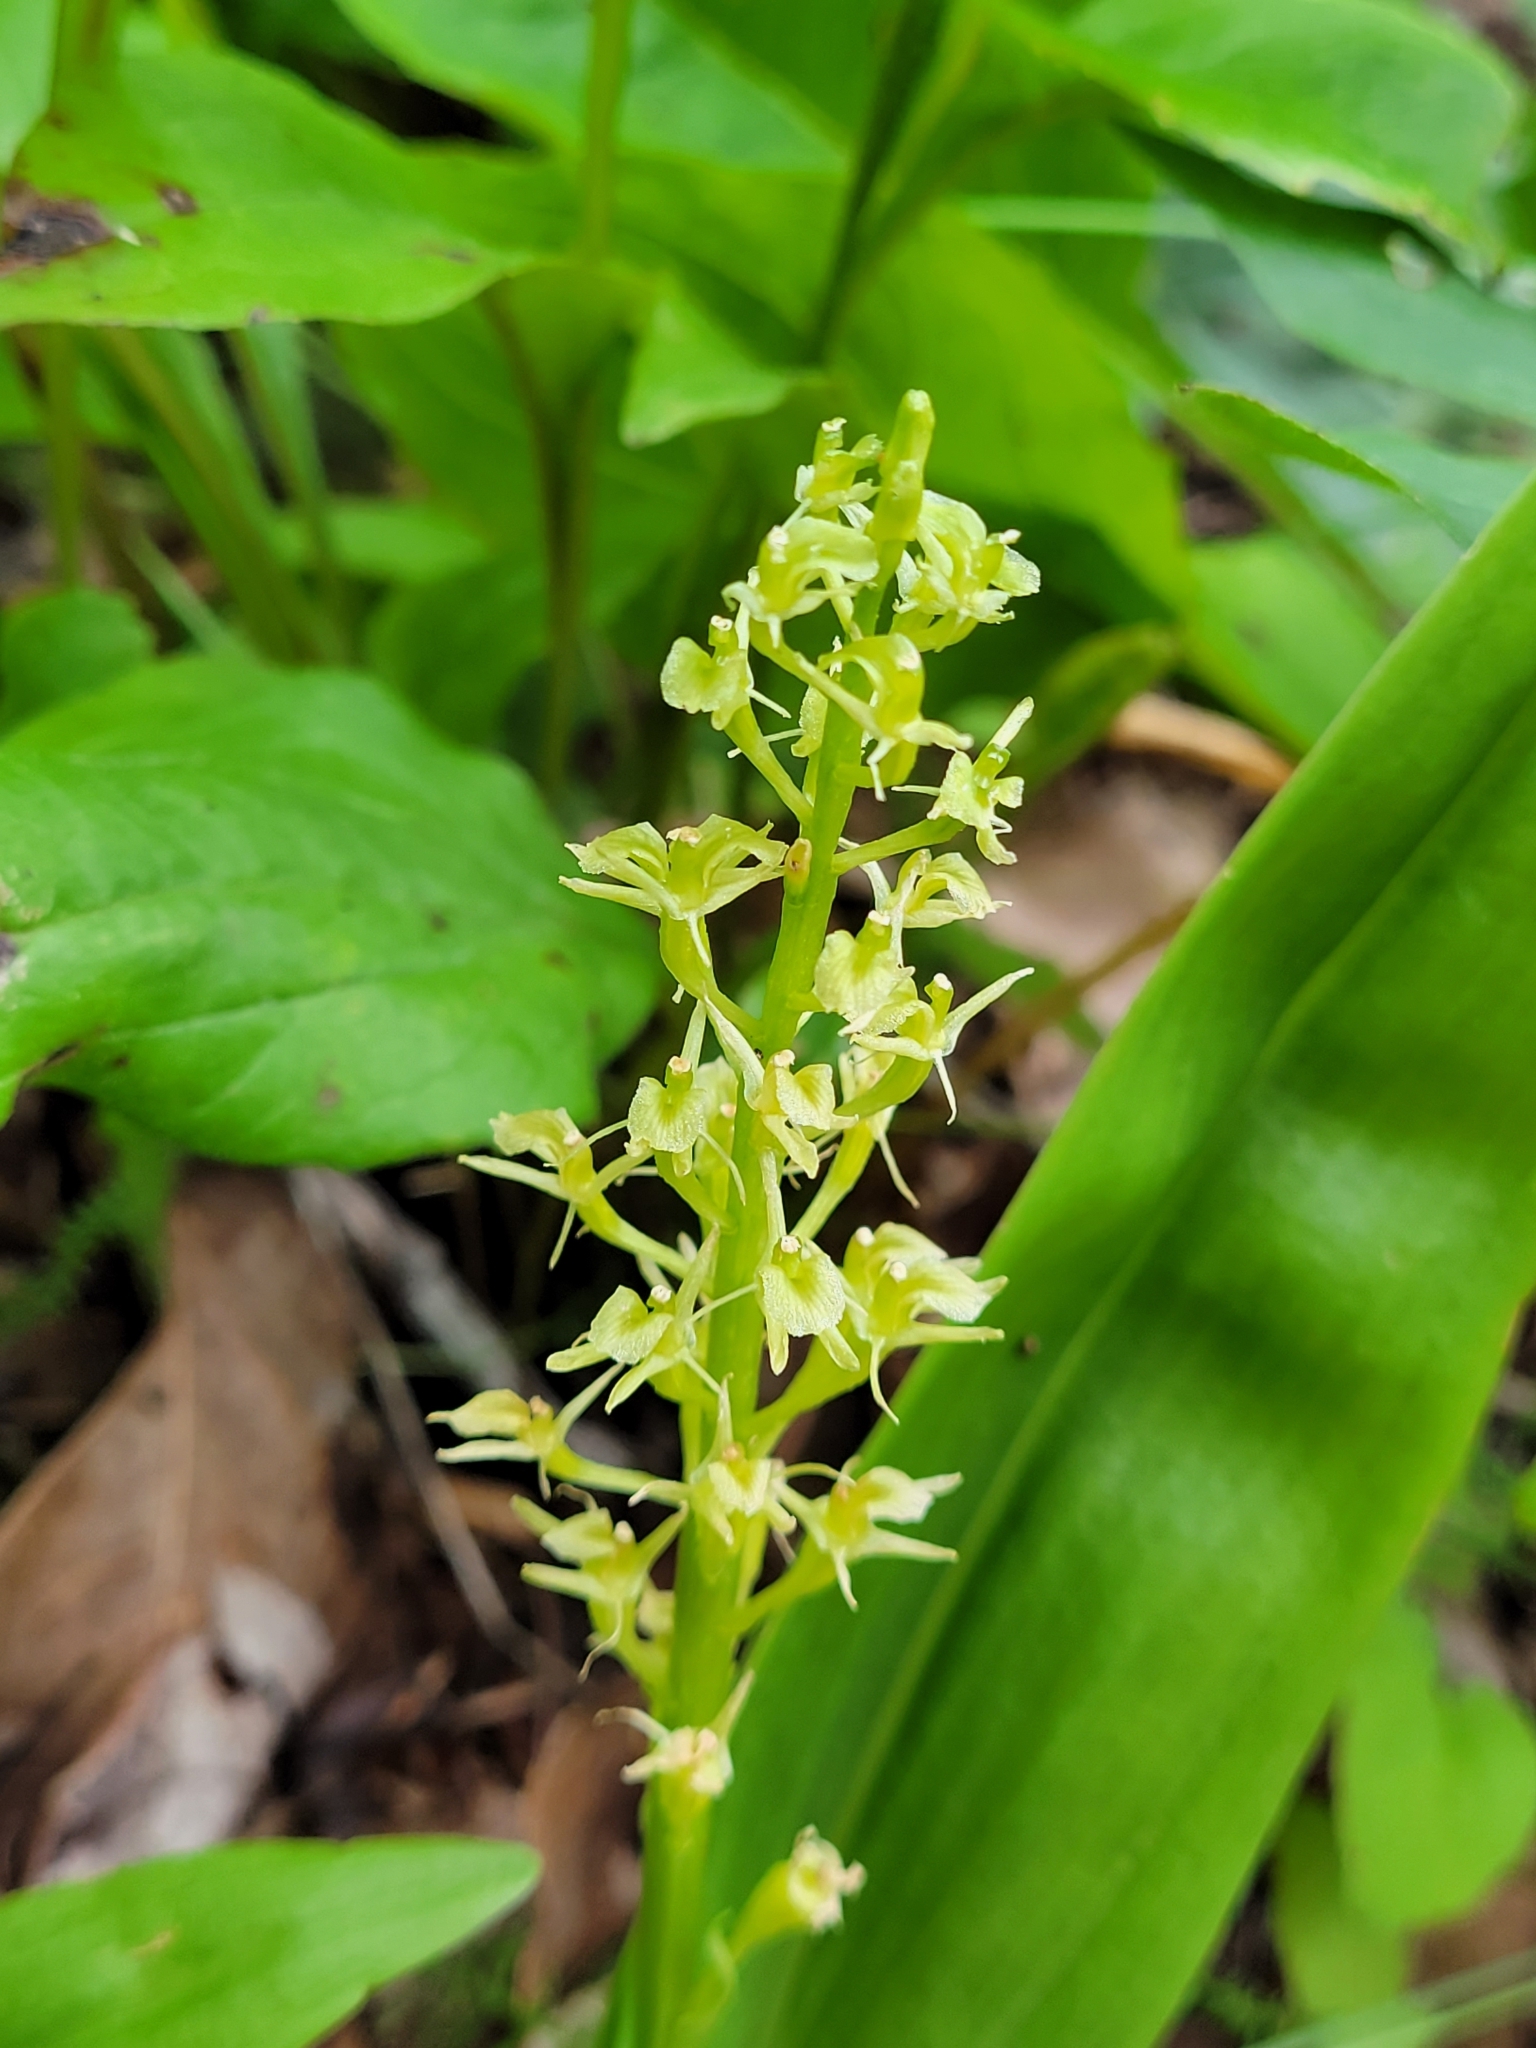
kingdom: Animalia
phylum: Arthropoda
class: Insecta
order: Coleoptera
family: Curculionidae
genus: Liparis
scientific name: Liparis loeselii
